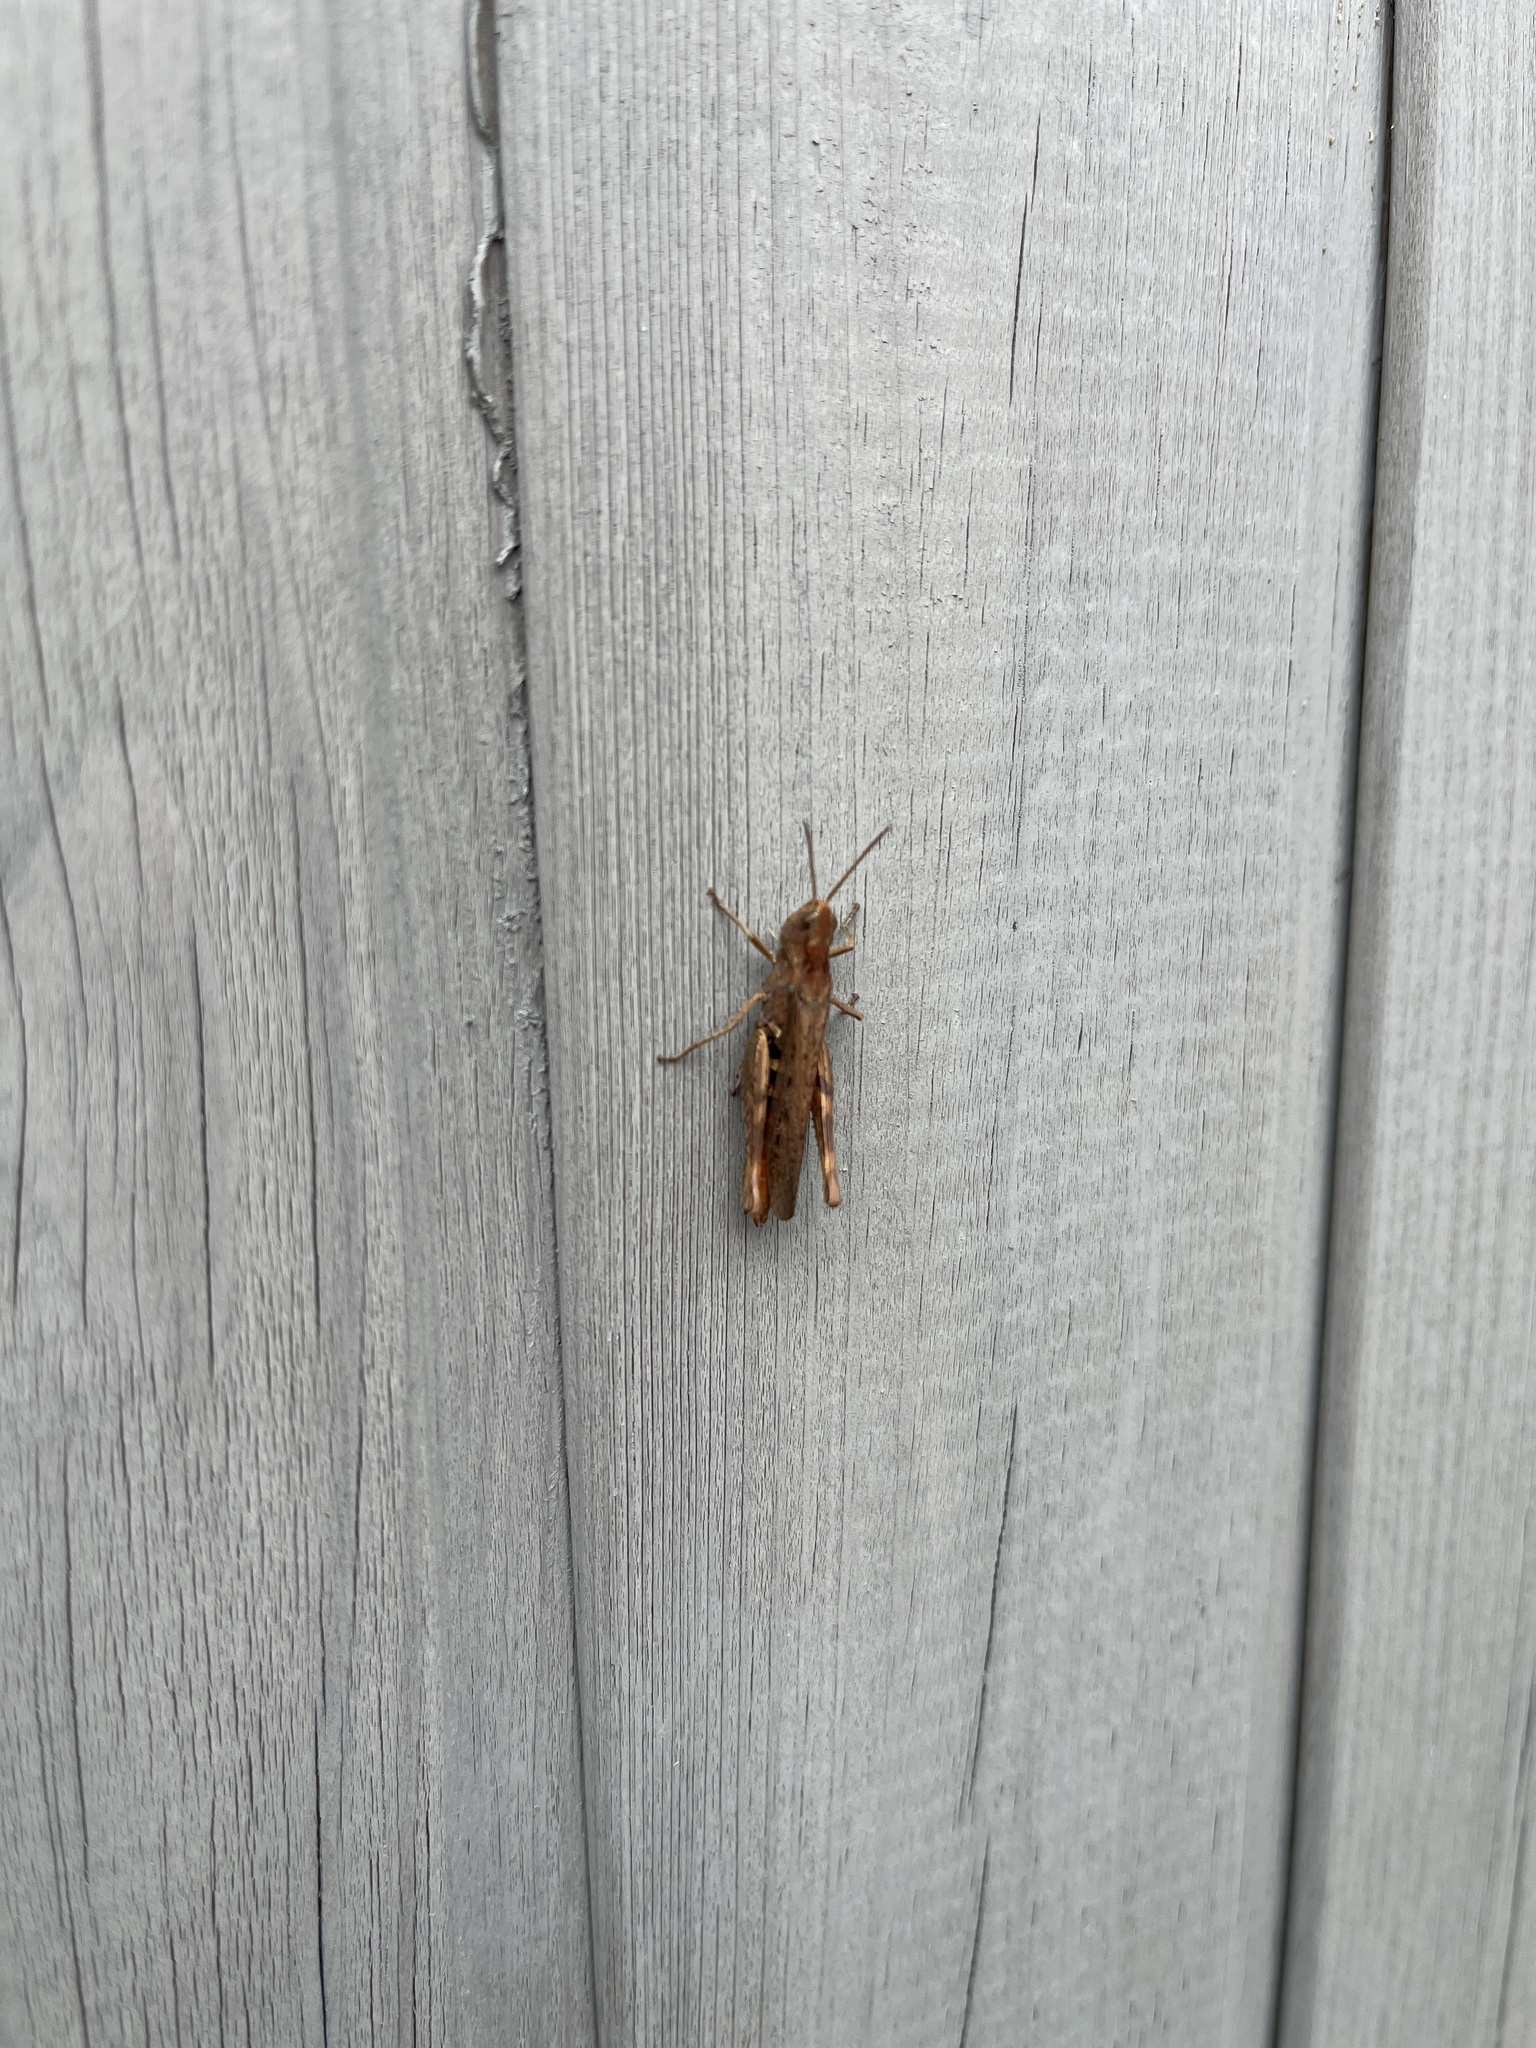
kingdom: Animalia
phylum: Arthropoda
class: Insecta
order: Orthoptera
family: Acrididae
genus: Chorthippus
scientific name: Chorthippus brunneus
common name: Field grasshopper
